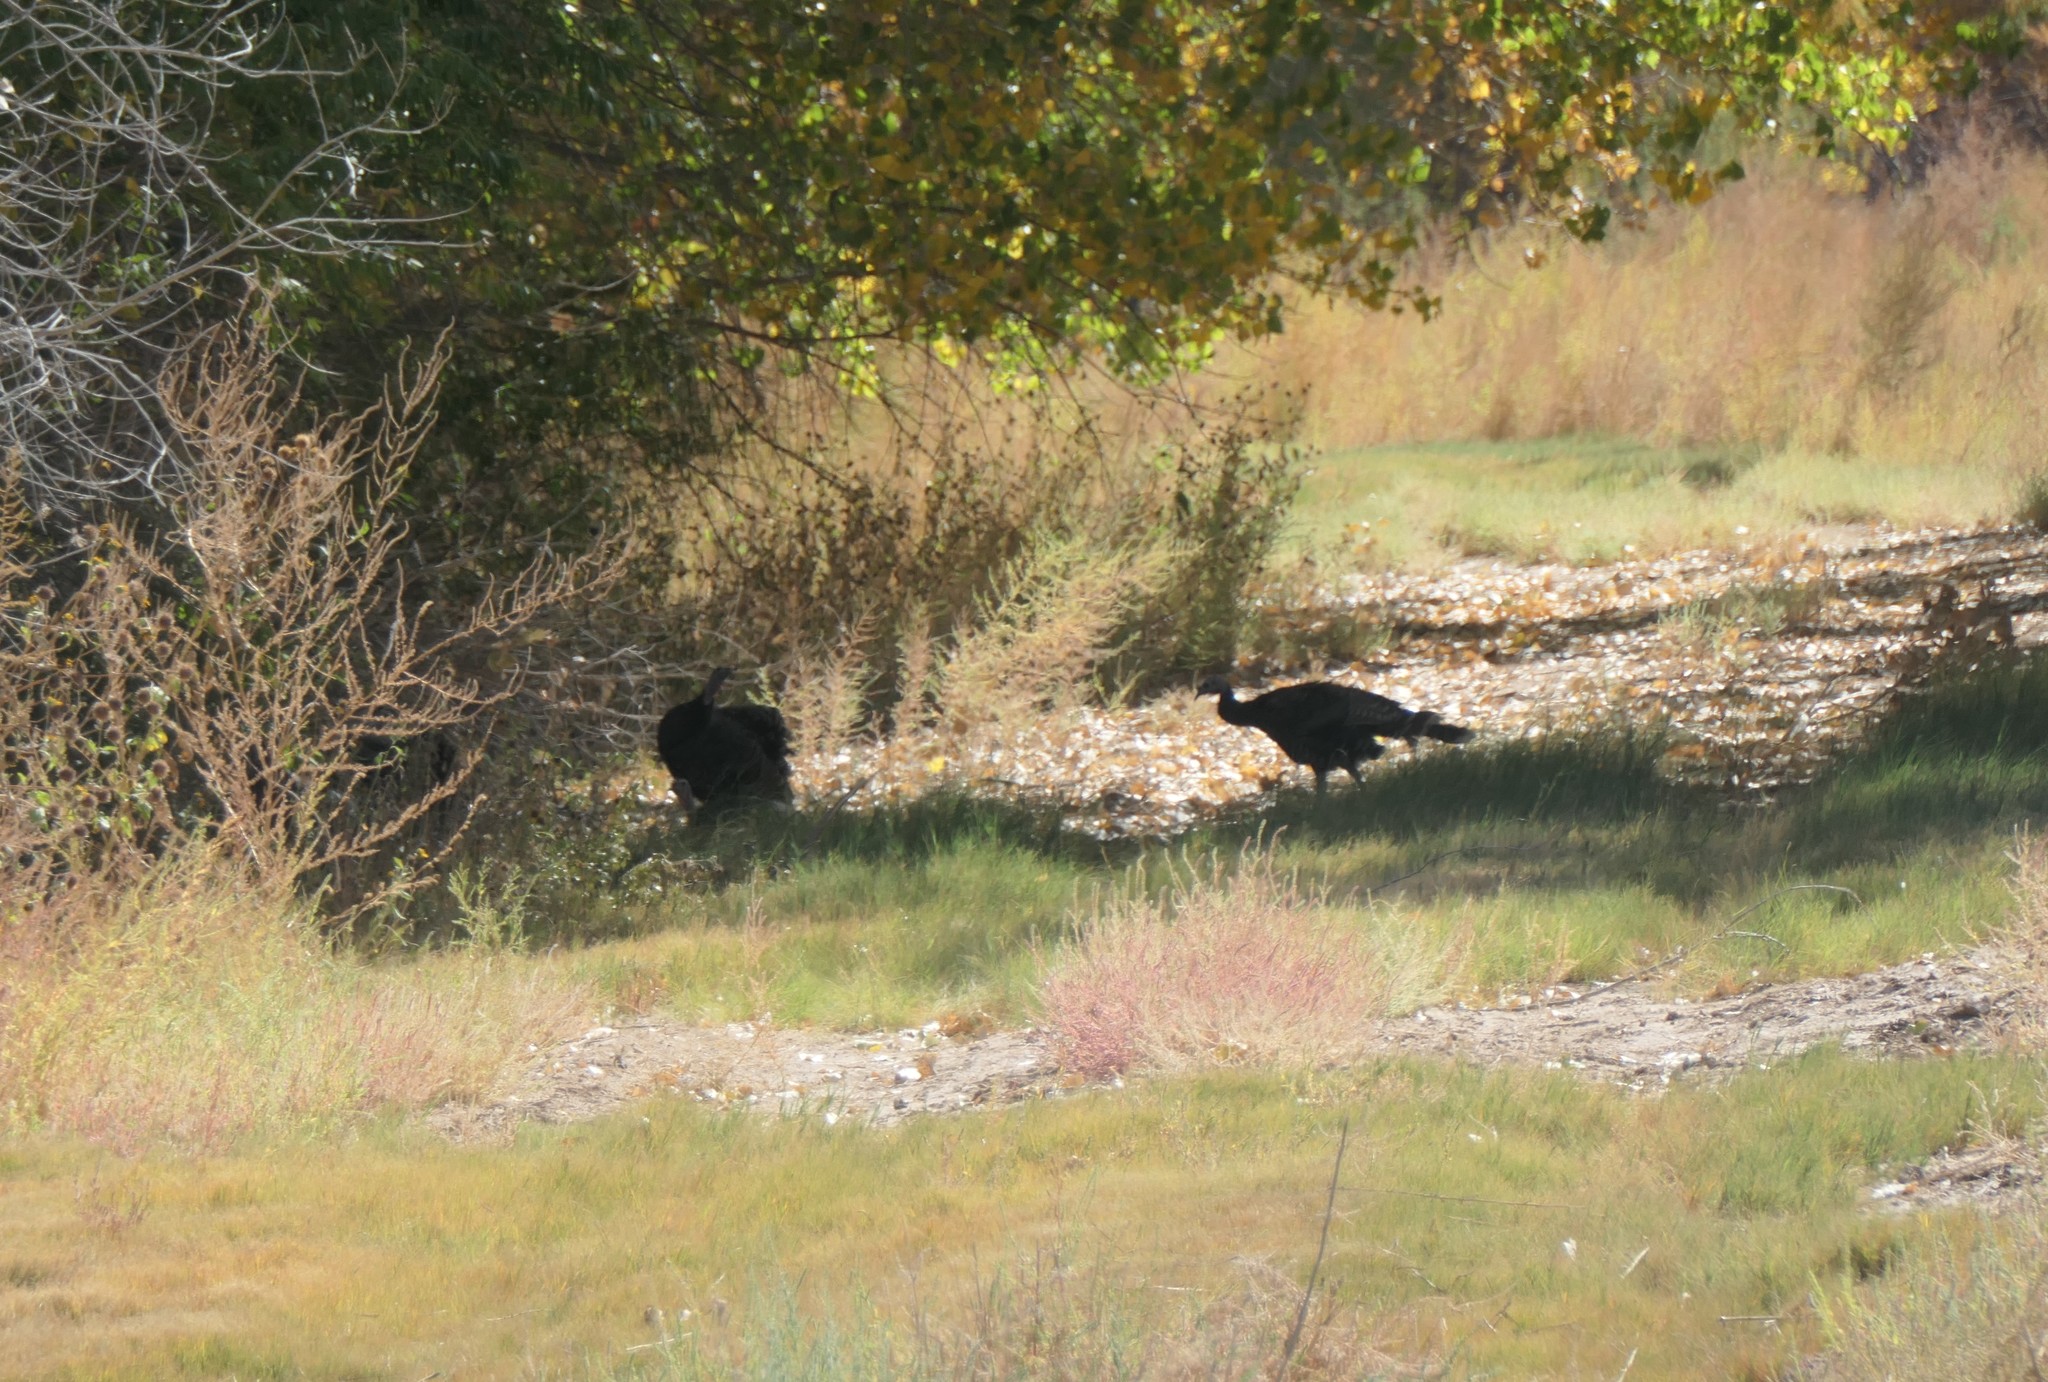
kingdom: Animalia
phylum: Chordata
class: Aves
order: Galliformes
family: Phasianidae
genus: Meleagris
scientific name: Meleagris gallopavo
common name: Wild turkey
